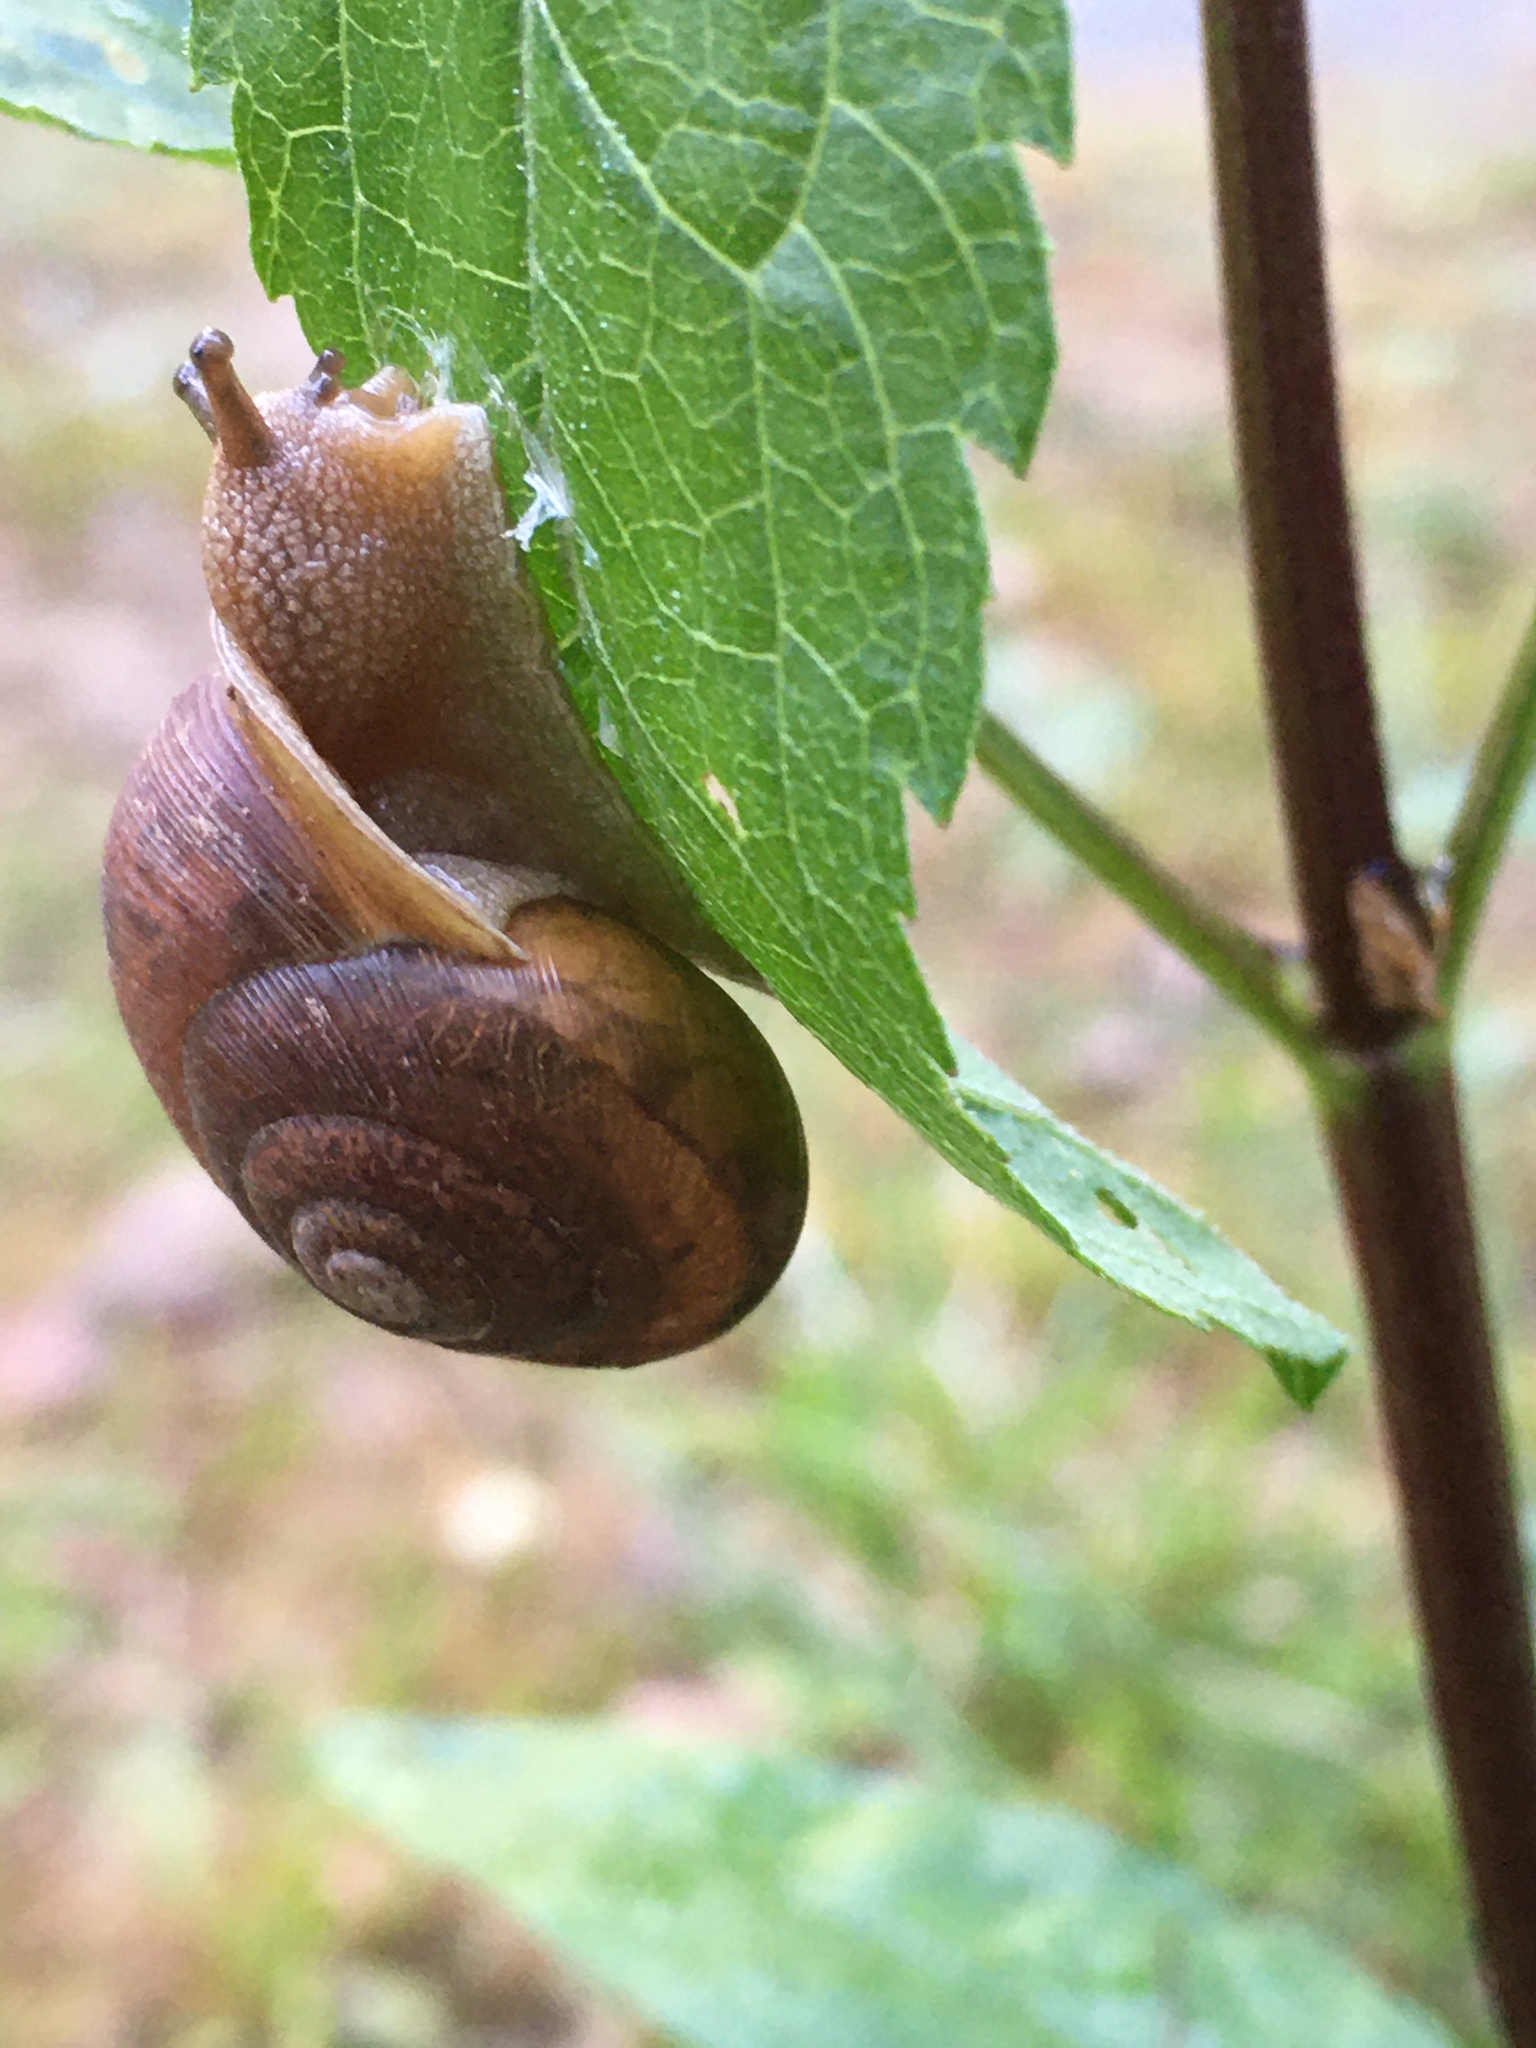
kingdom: Animalia
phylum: Mollusca
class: Gastropoda
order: Stylommatophora
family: Polygyridae
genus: Neohelix
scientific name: Neohelix major
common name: Southeastern whitelip
